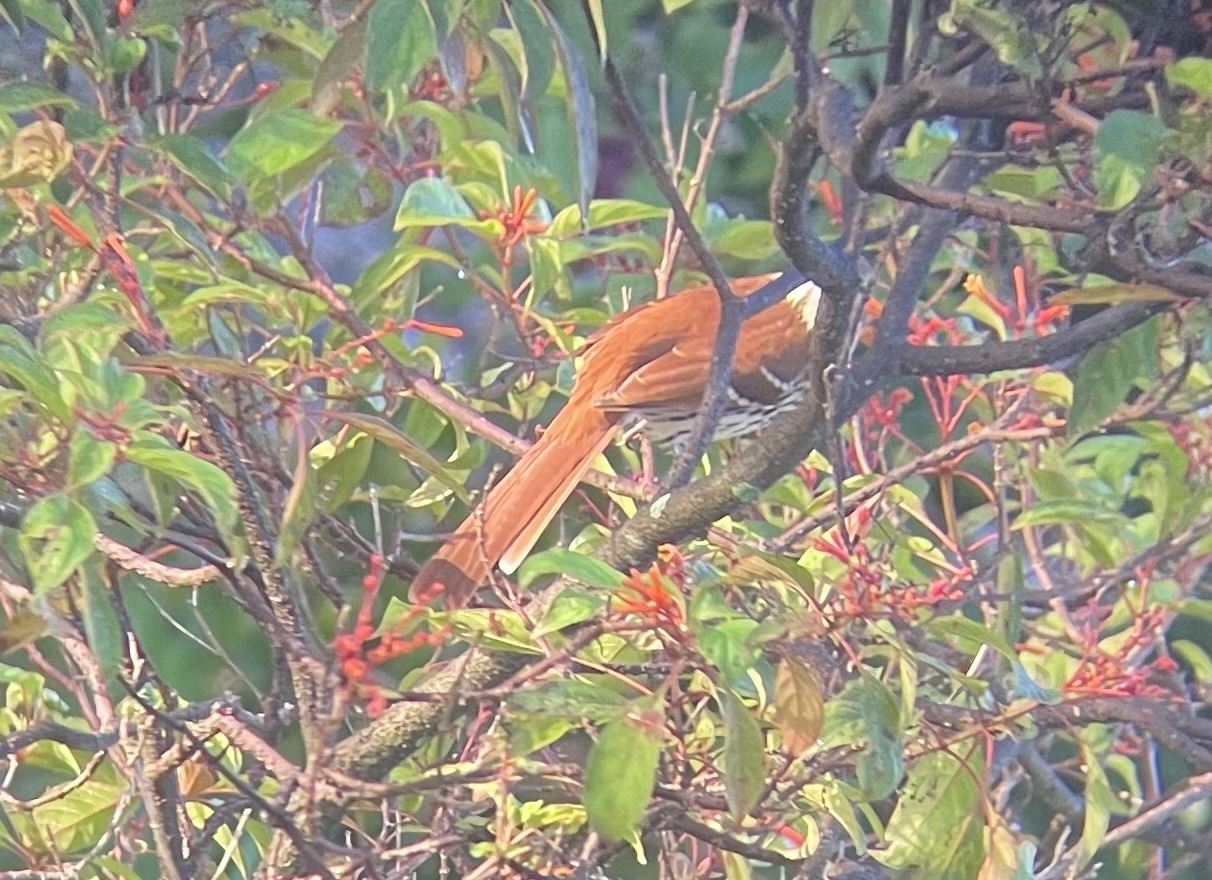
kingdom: Animalia
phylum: Chordata
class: Aves
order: Passeriformes
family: Mimidae
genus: Toxostoma
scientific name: Toxostoma rufum
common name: Brown thrasher
